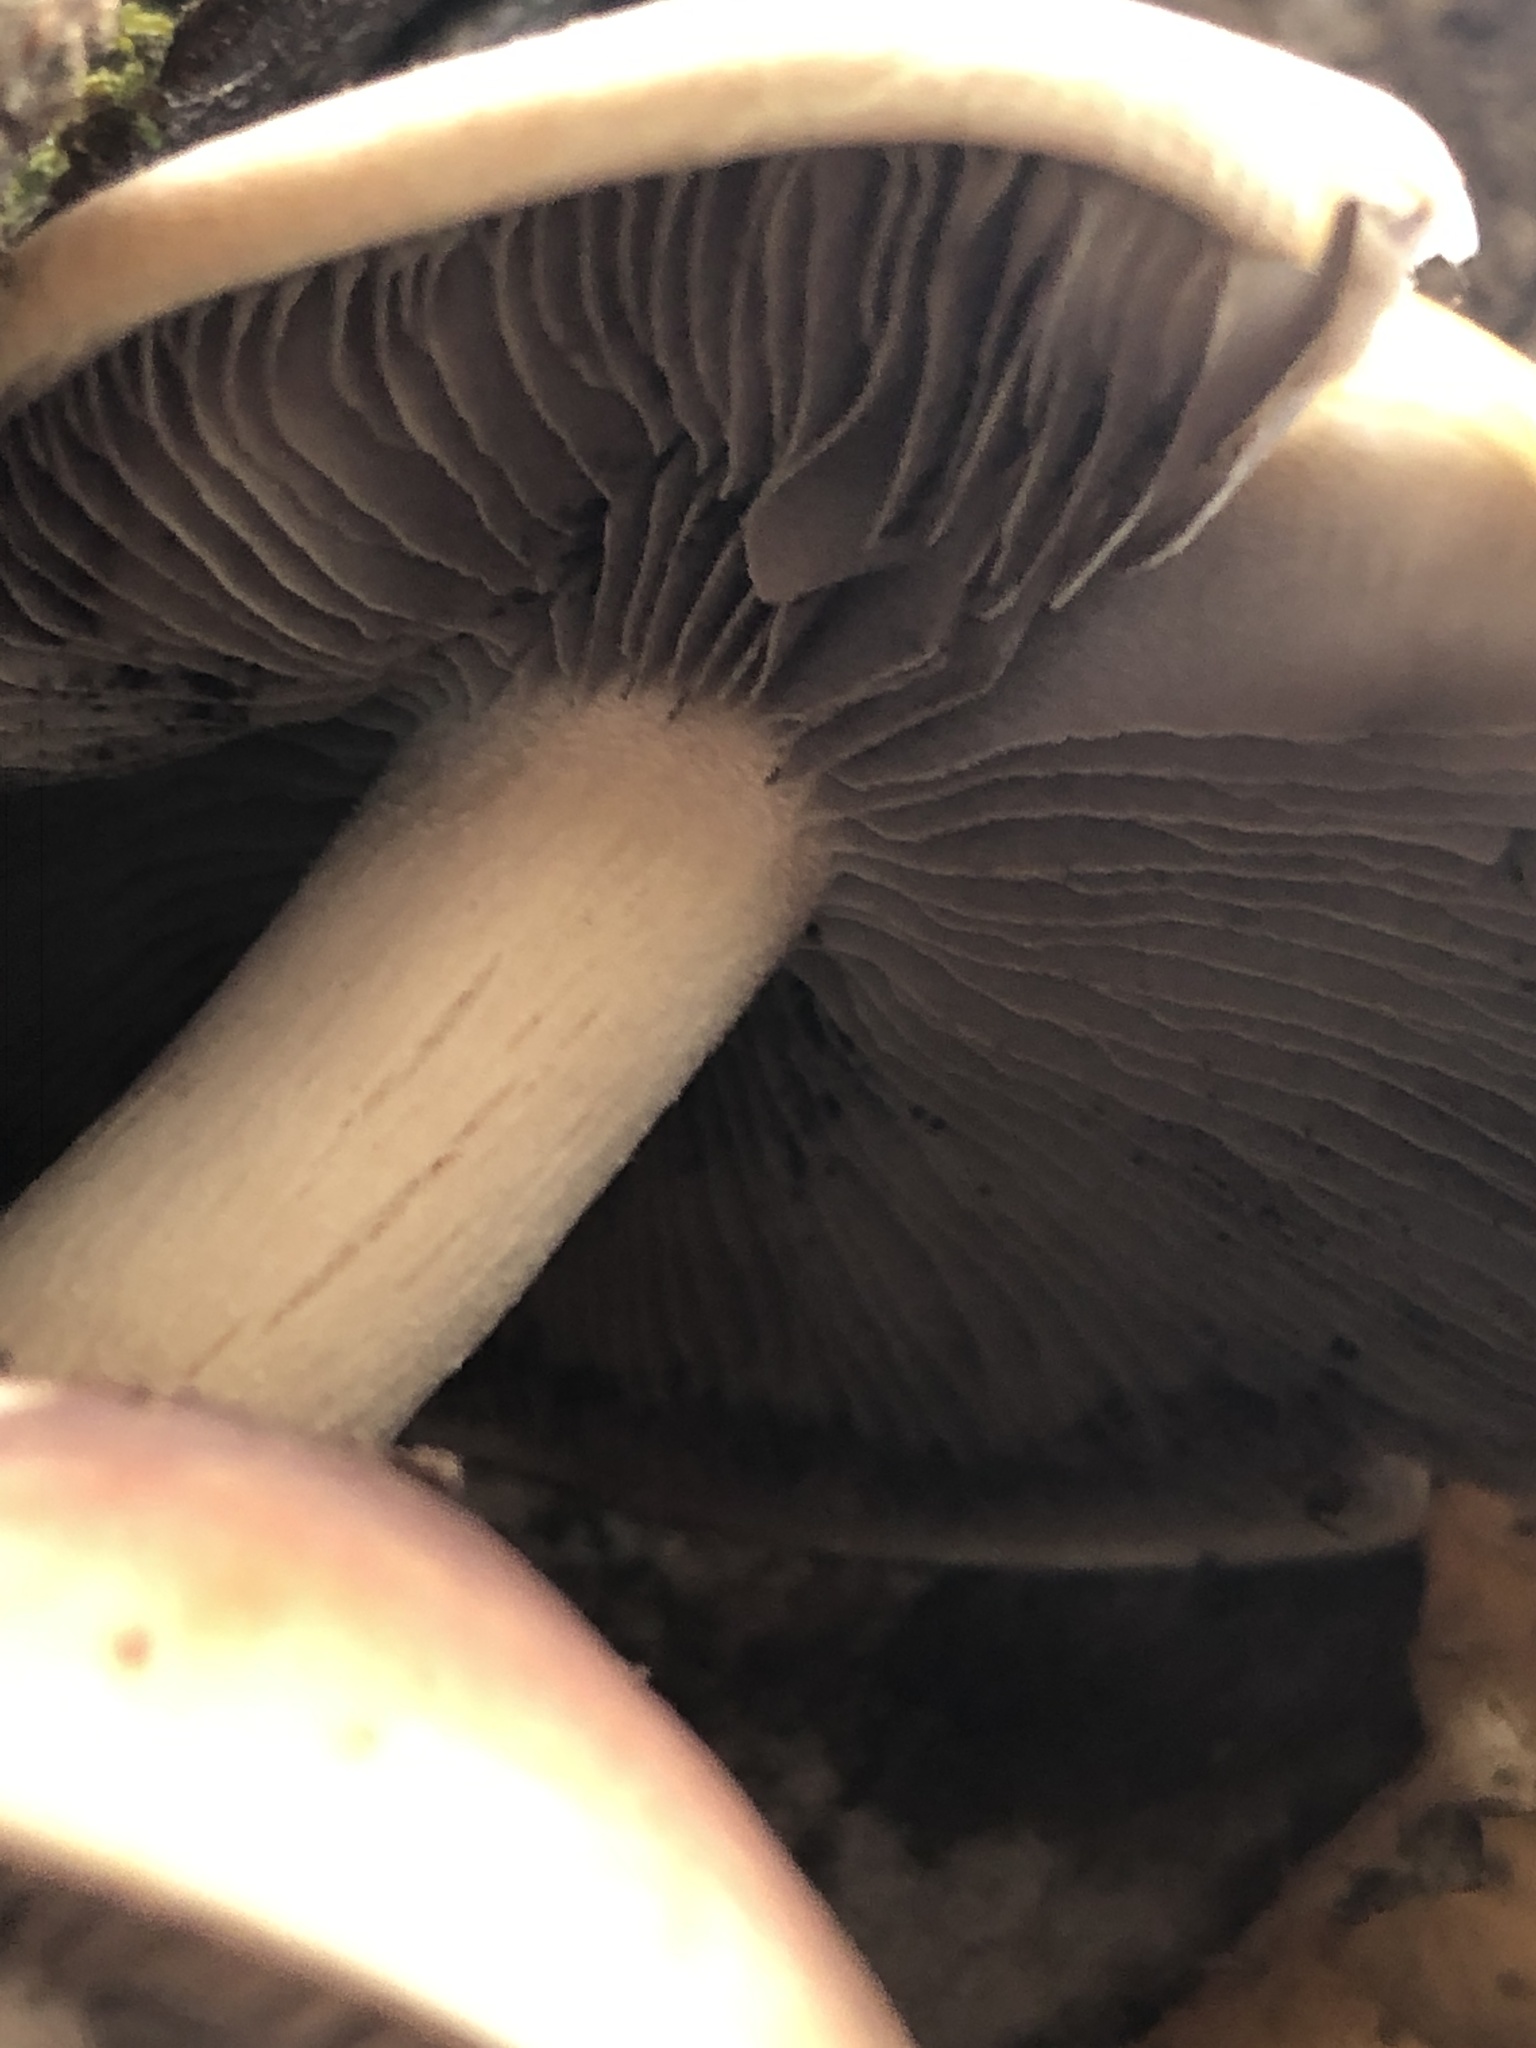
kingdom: Fungi
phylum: Basidiomycota
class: Agaricomycetes
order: Agaricales
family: Strophariaceae
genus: Hypholoma
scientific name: Hypholoma lateritium
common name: Brick caps
